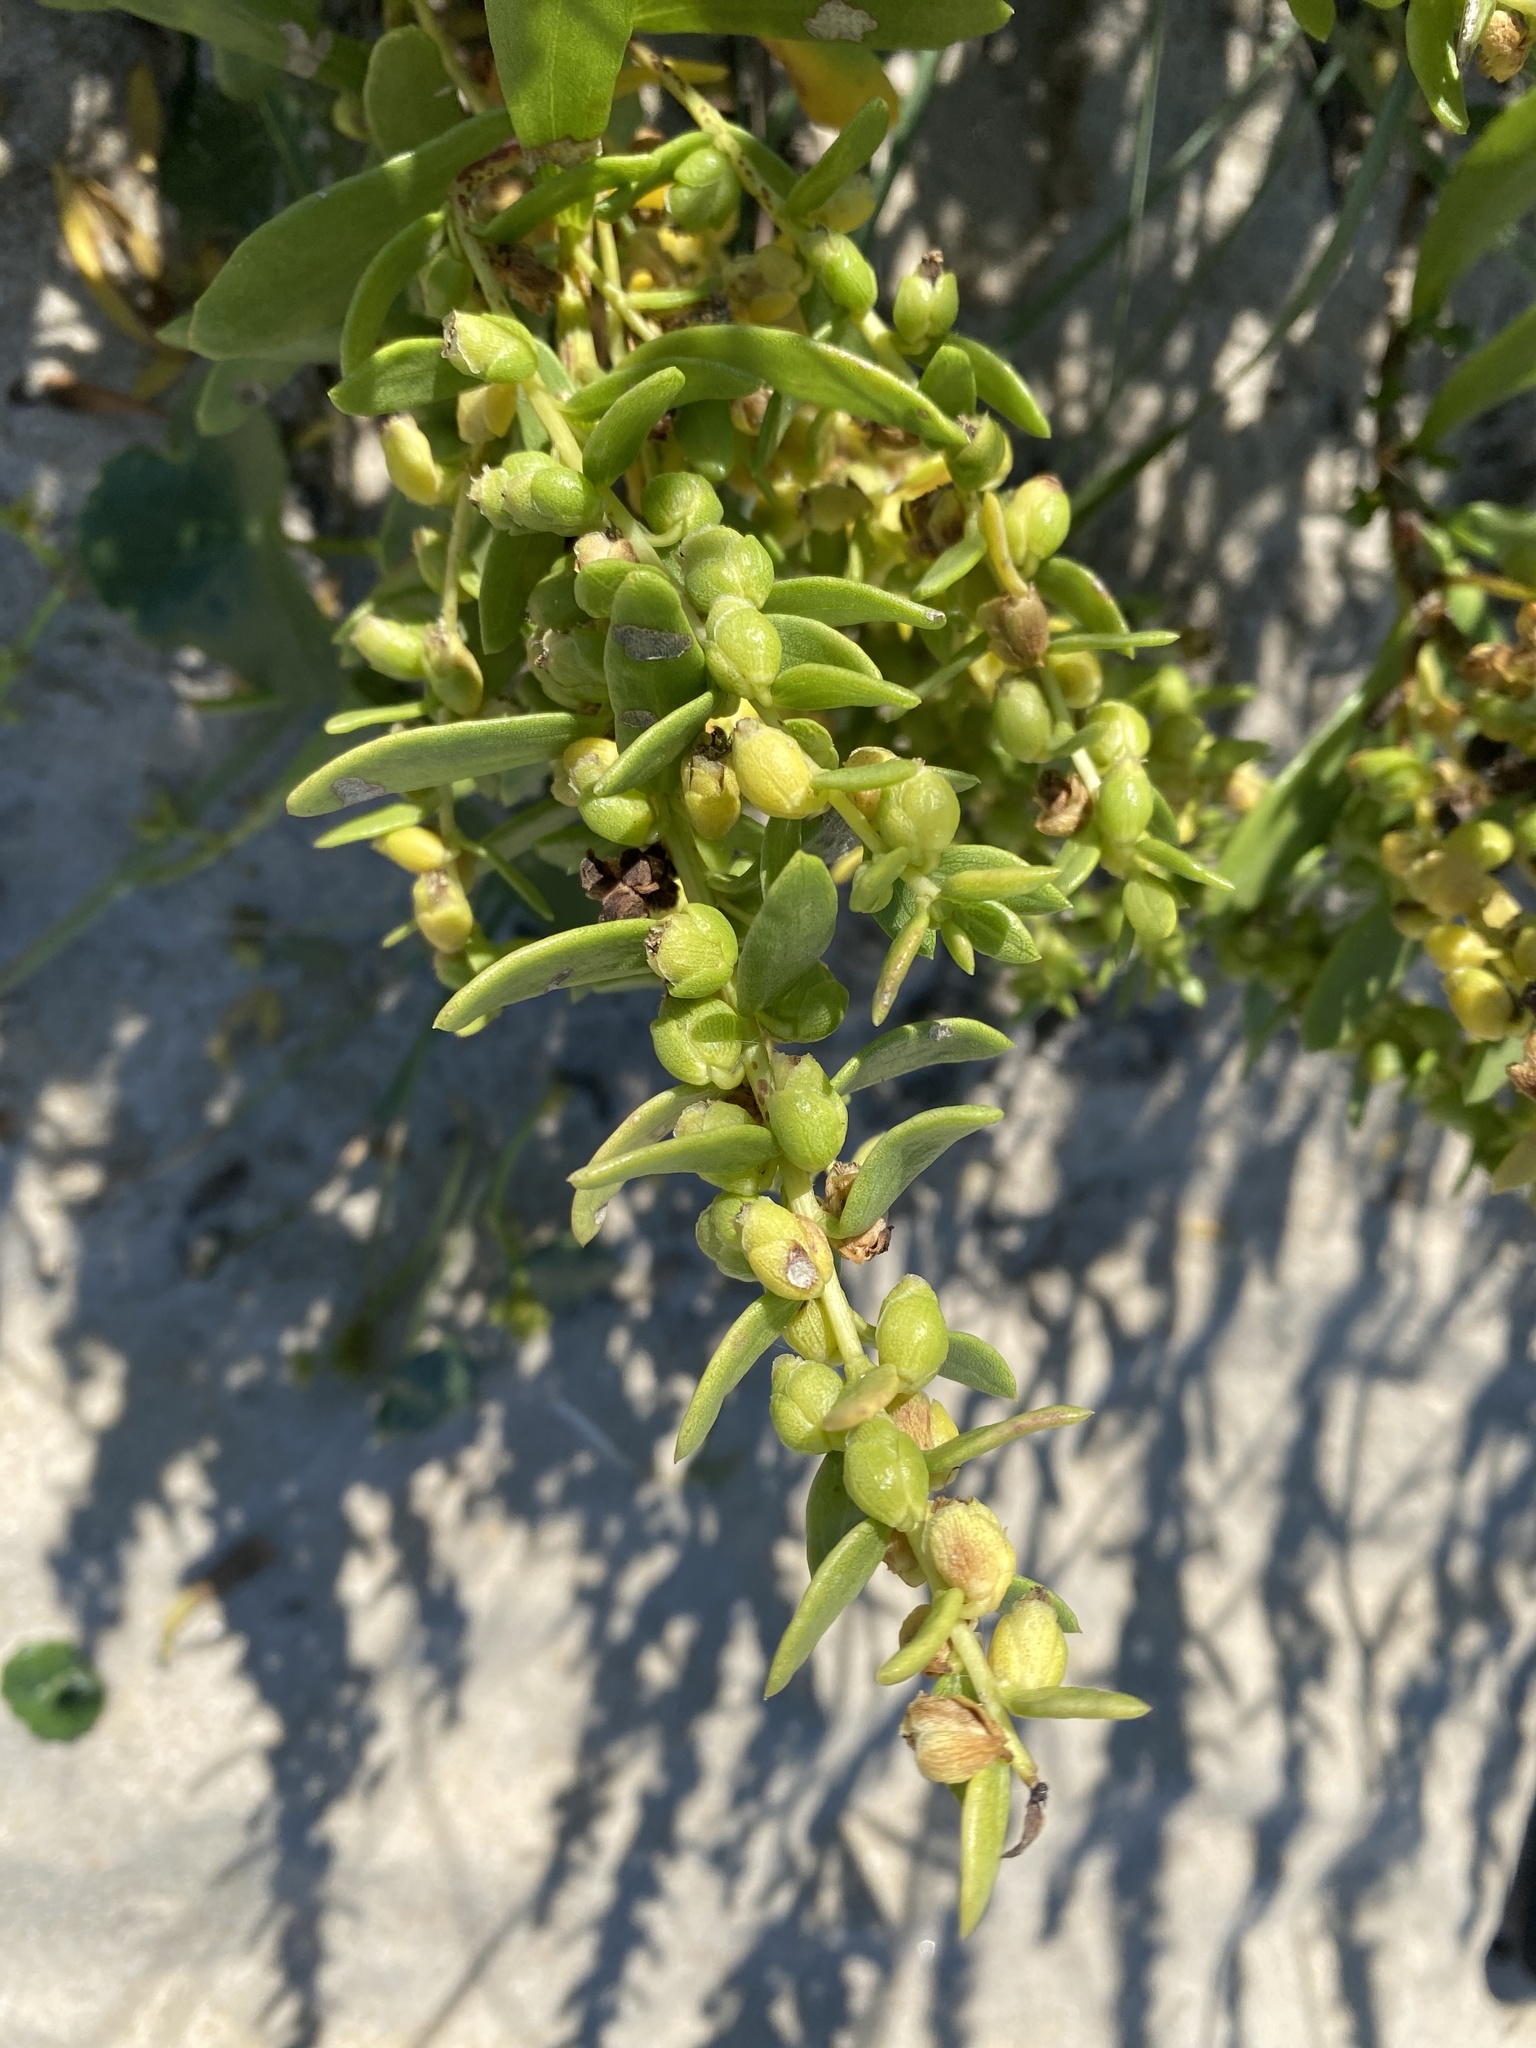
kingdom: Plantae
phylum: Tracheophyta
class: Magnoliopsida
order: Asterales
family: Asteraceae
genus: Iva
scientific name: Iva imbricata
